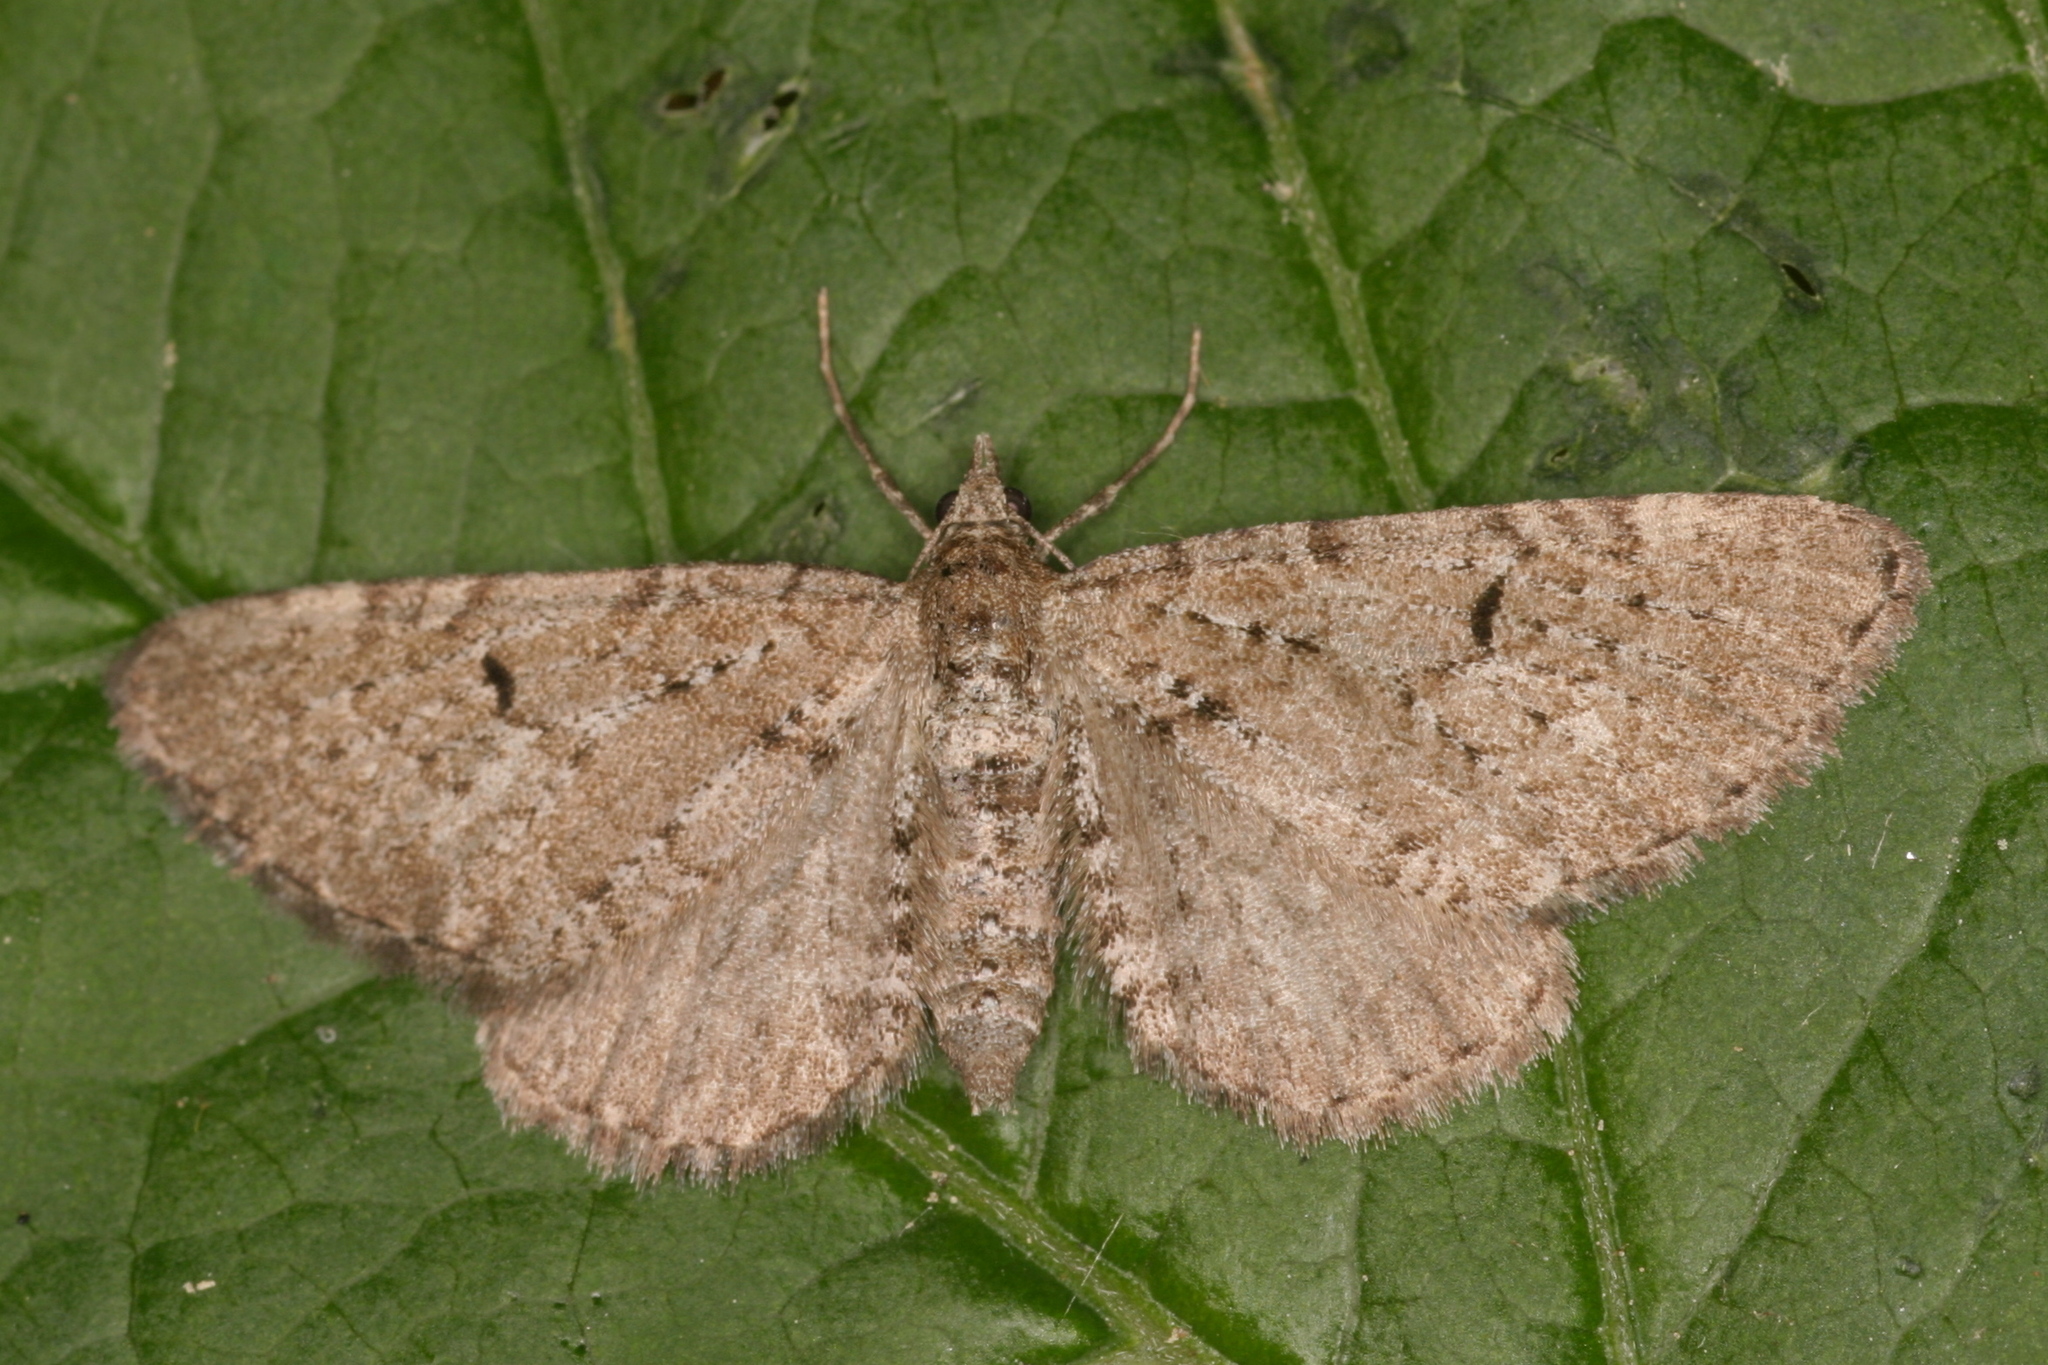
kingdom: Animalia
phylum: Arthropoda
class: Insecta
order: Lepidoptera
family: Geometridae
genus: Eupithecia
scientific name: Eupithecia intricata
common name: Freyers pug
